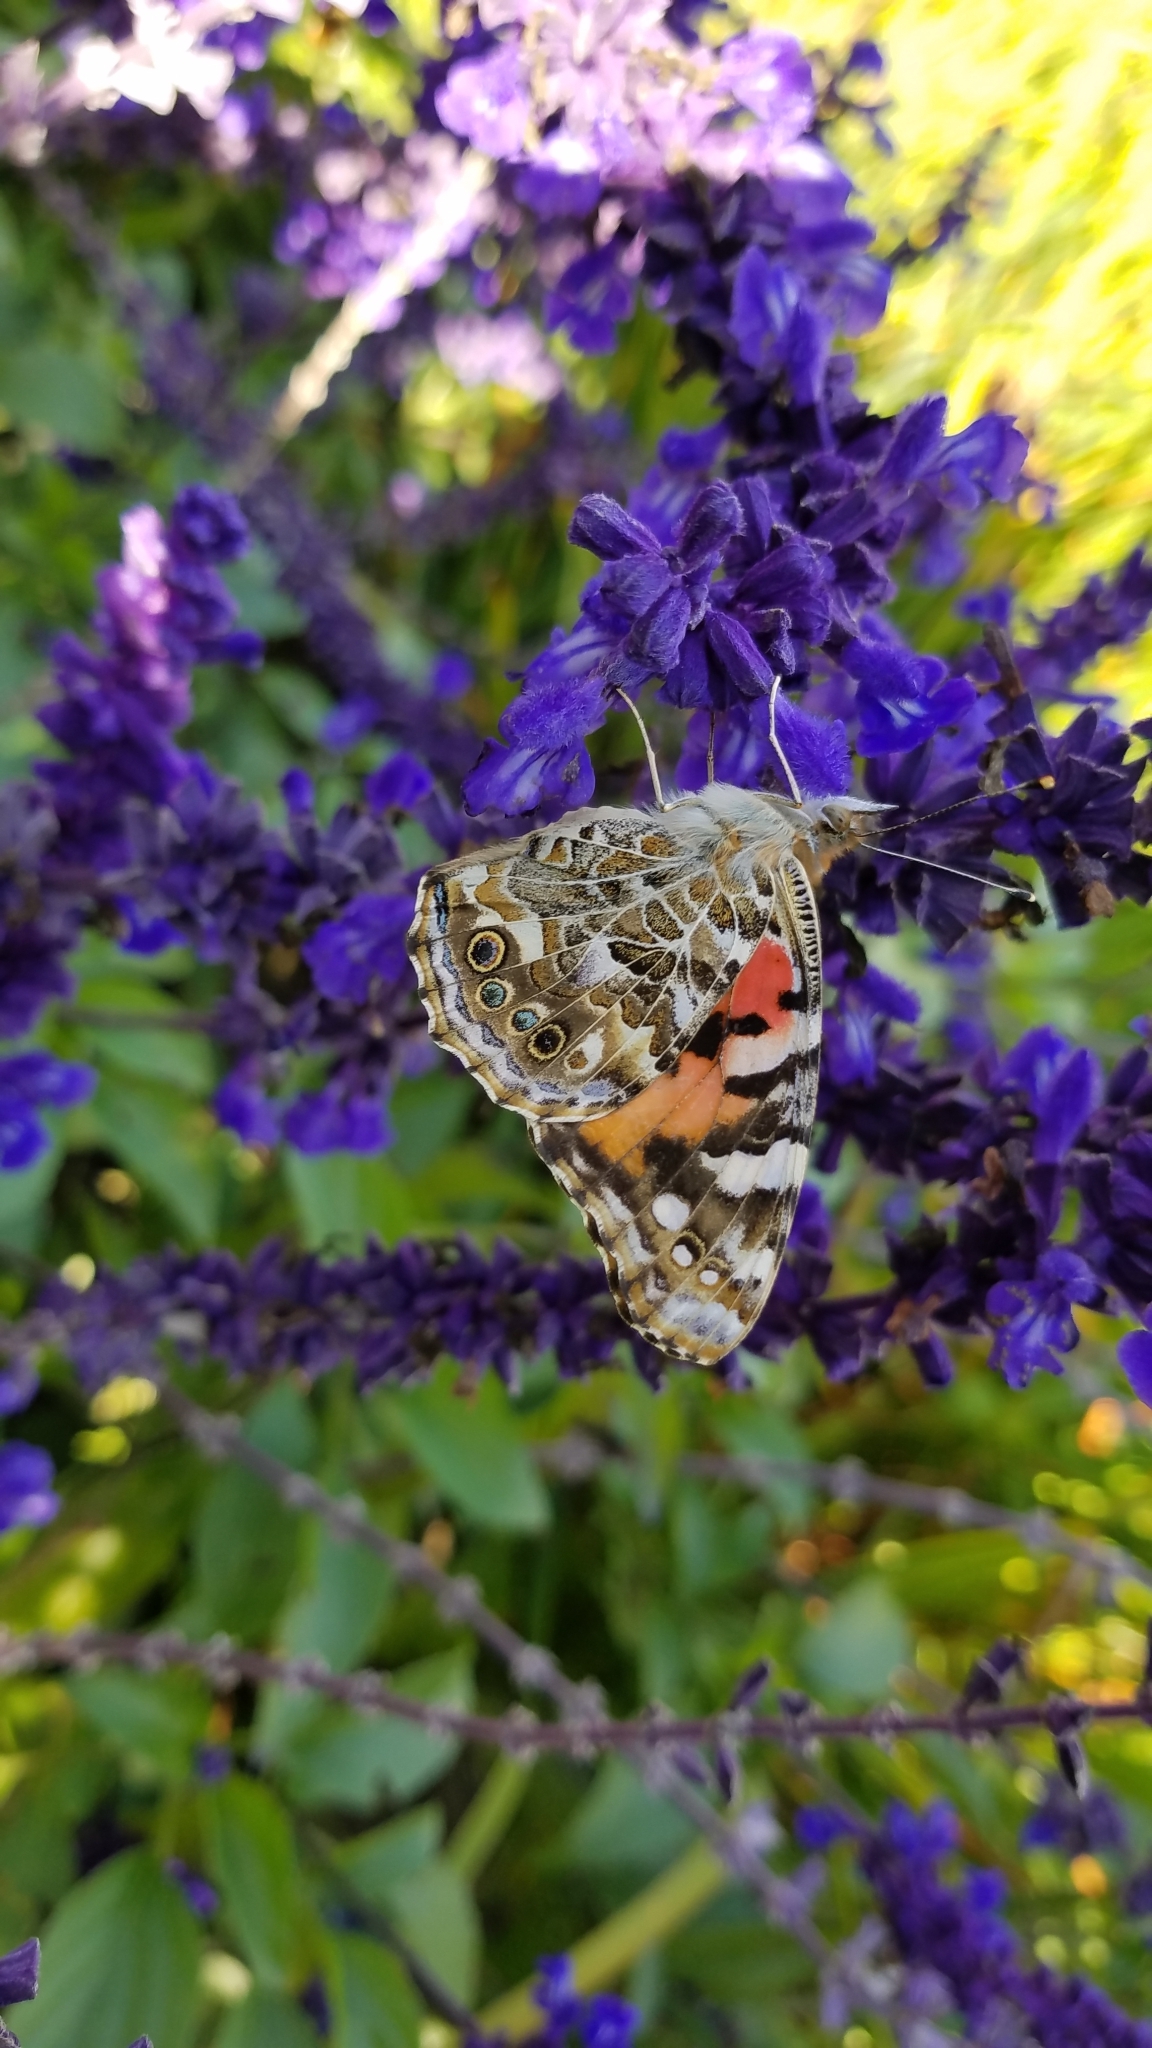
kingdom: Animalia
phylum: Arthropoda
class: Insecta
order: Lepidoptera
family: Nymphalidae
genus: Vanessa
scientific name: Vanessa cardui
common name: Painted lady
